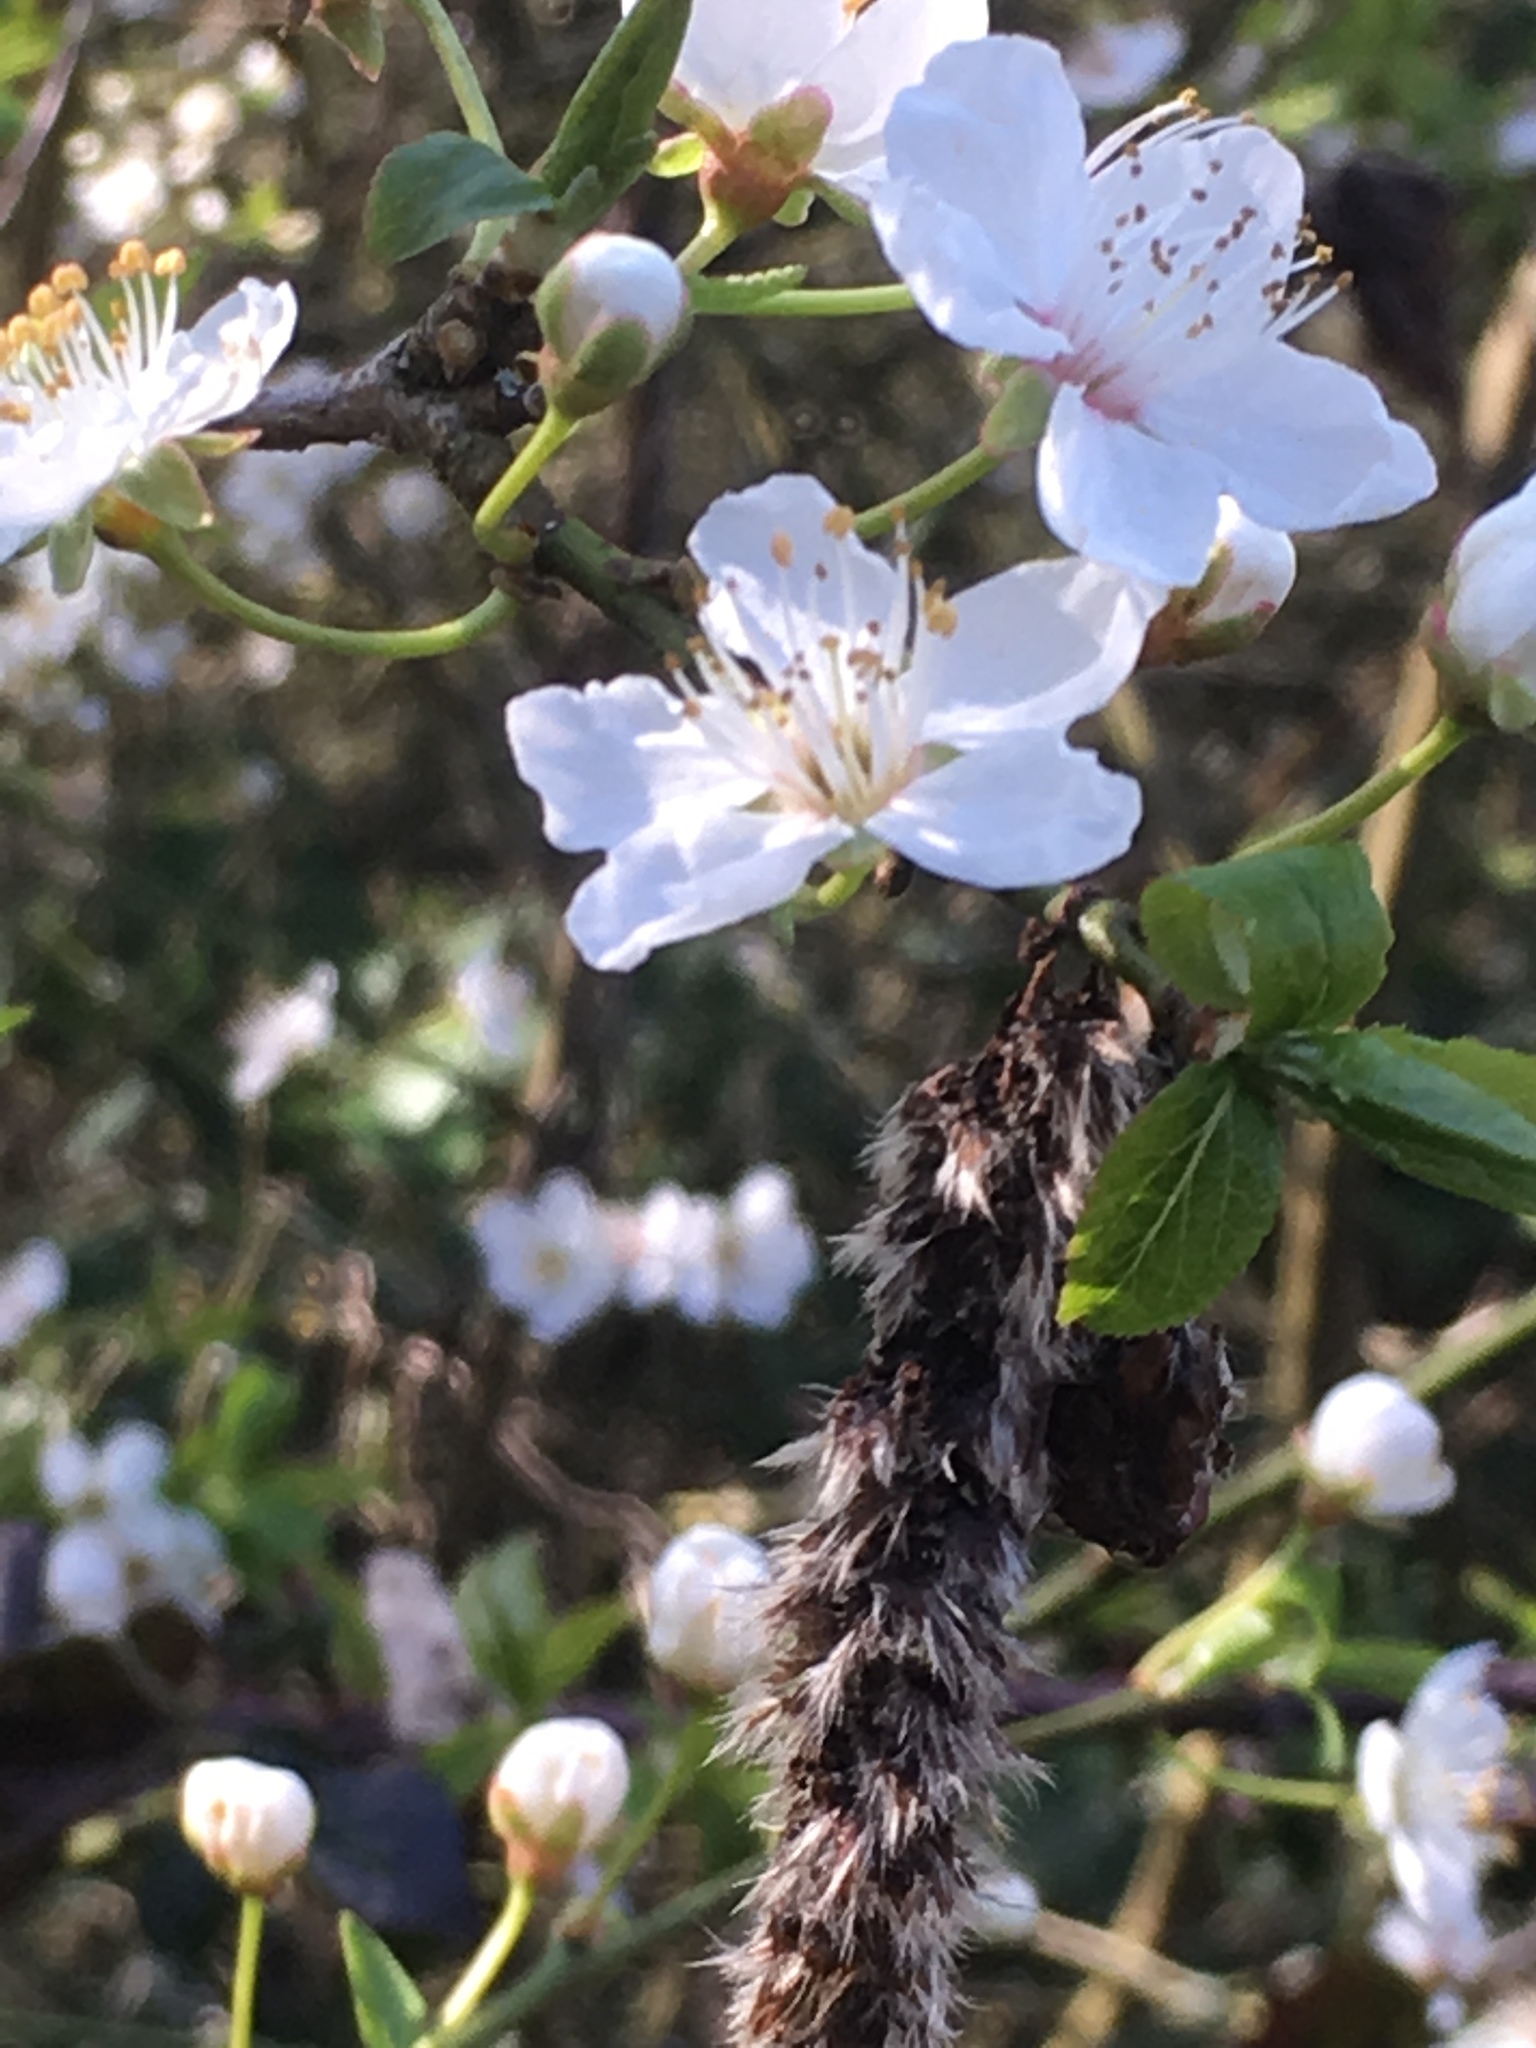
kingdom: Plantae
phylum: Tracheophyta
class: Magnoliopsida
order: Rosales
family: Rosaceae
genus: Prunus
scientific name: Prunus spinosa
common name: Blackthorn
